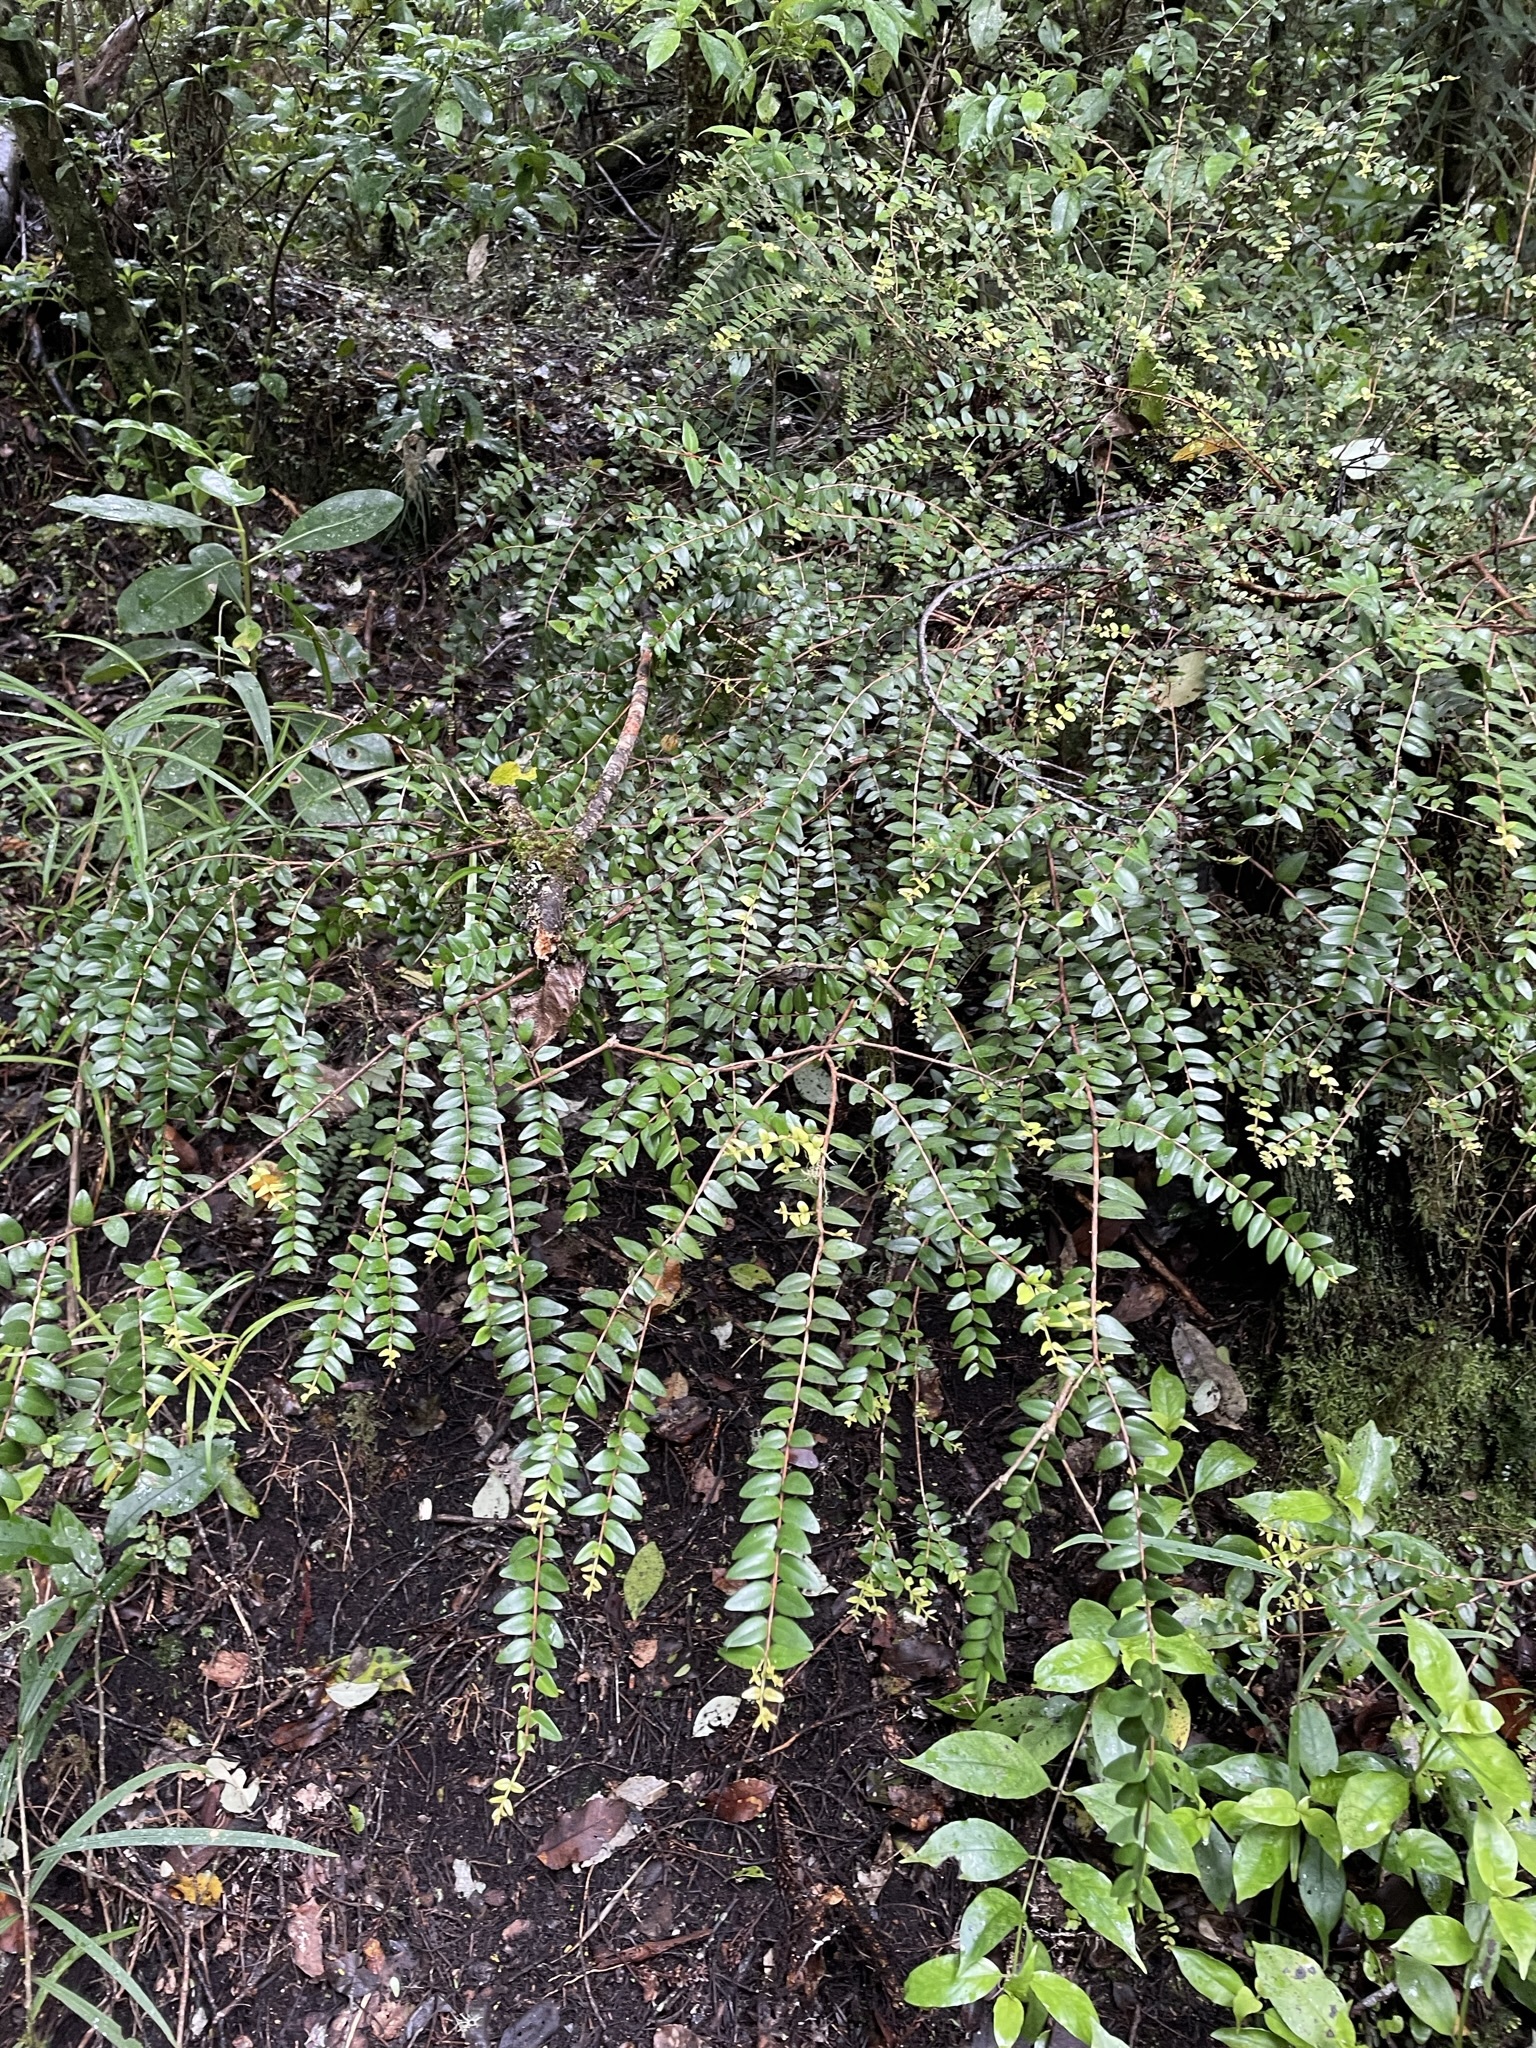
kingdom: Plantae
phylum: Tracheophyta
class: Magnoliopsida
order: Myrtales
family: Myrtaceae
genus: Metrosideros
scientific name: Metrosideros diffusa
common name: Small ratavine
